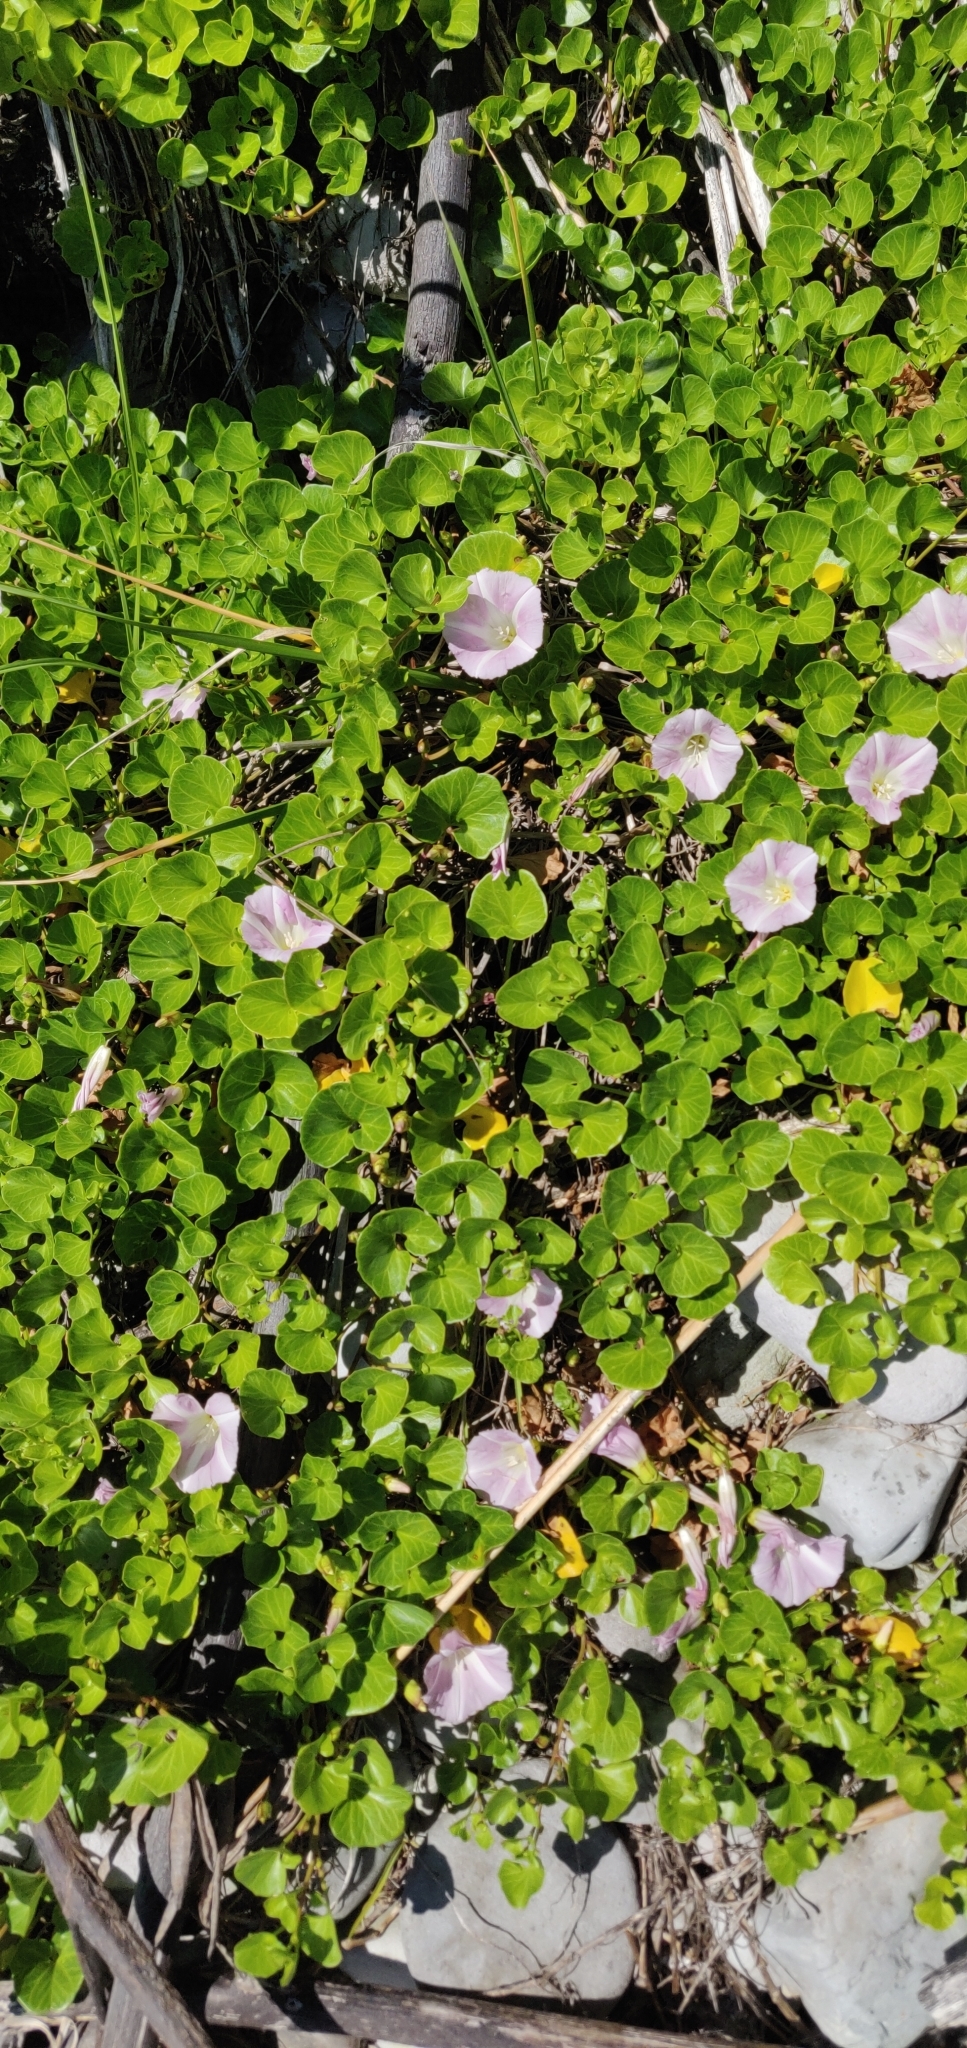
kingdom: Plantae
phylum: Tracheophyta
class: Magnoliopsida
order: Solanales
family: Convolvulaceae
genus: Calystegia
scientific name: Calystegia soldanella
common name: Sea bindweed
